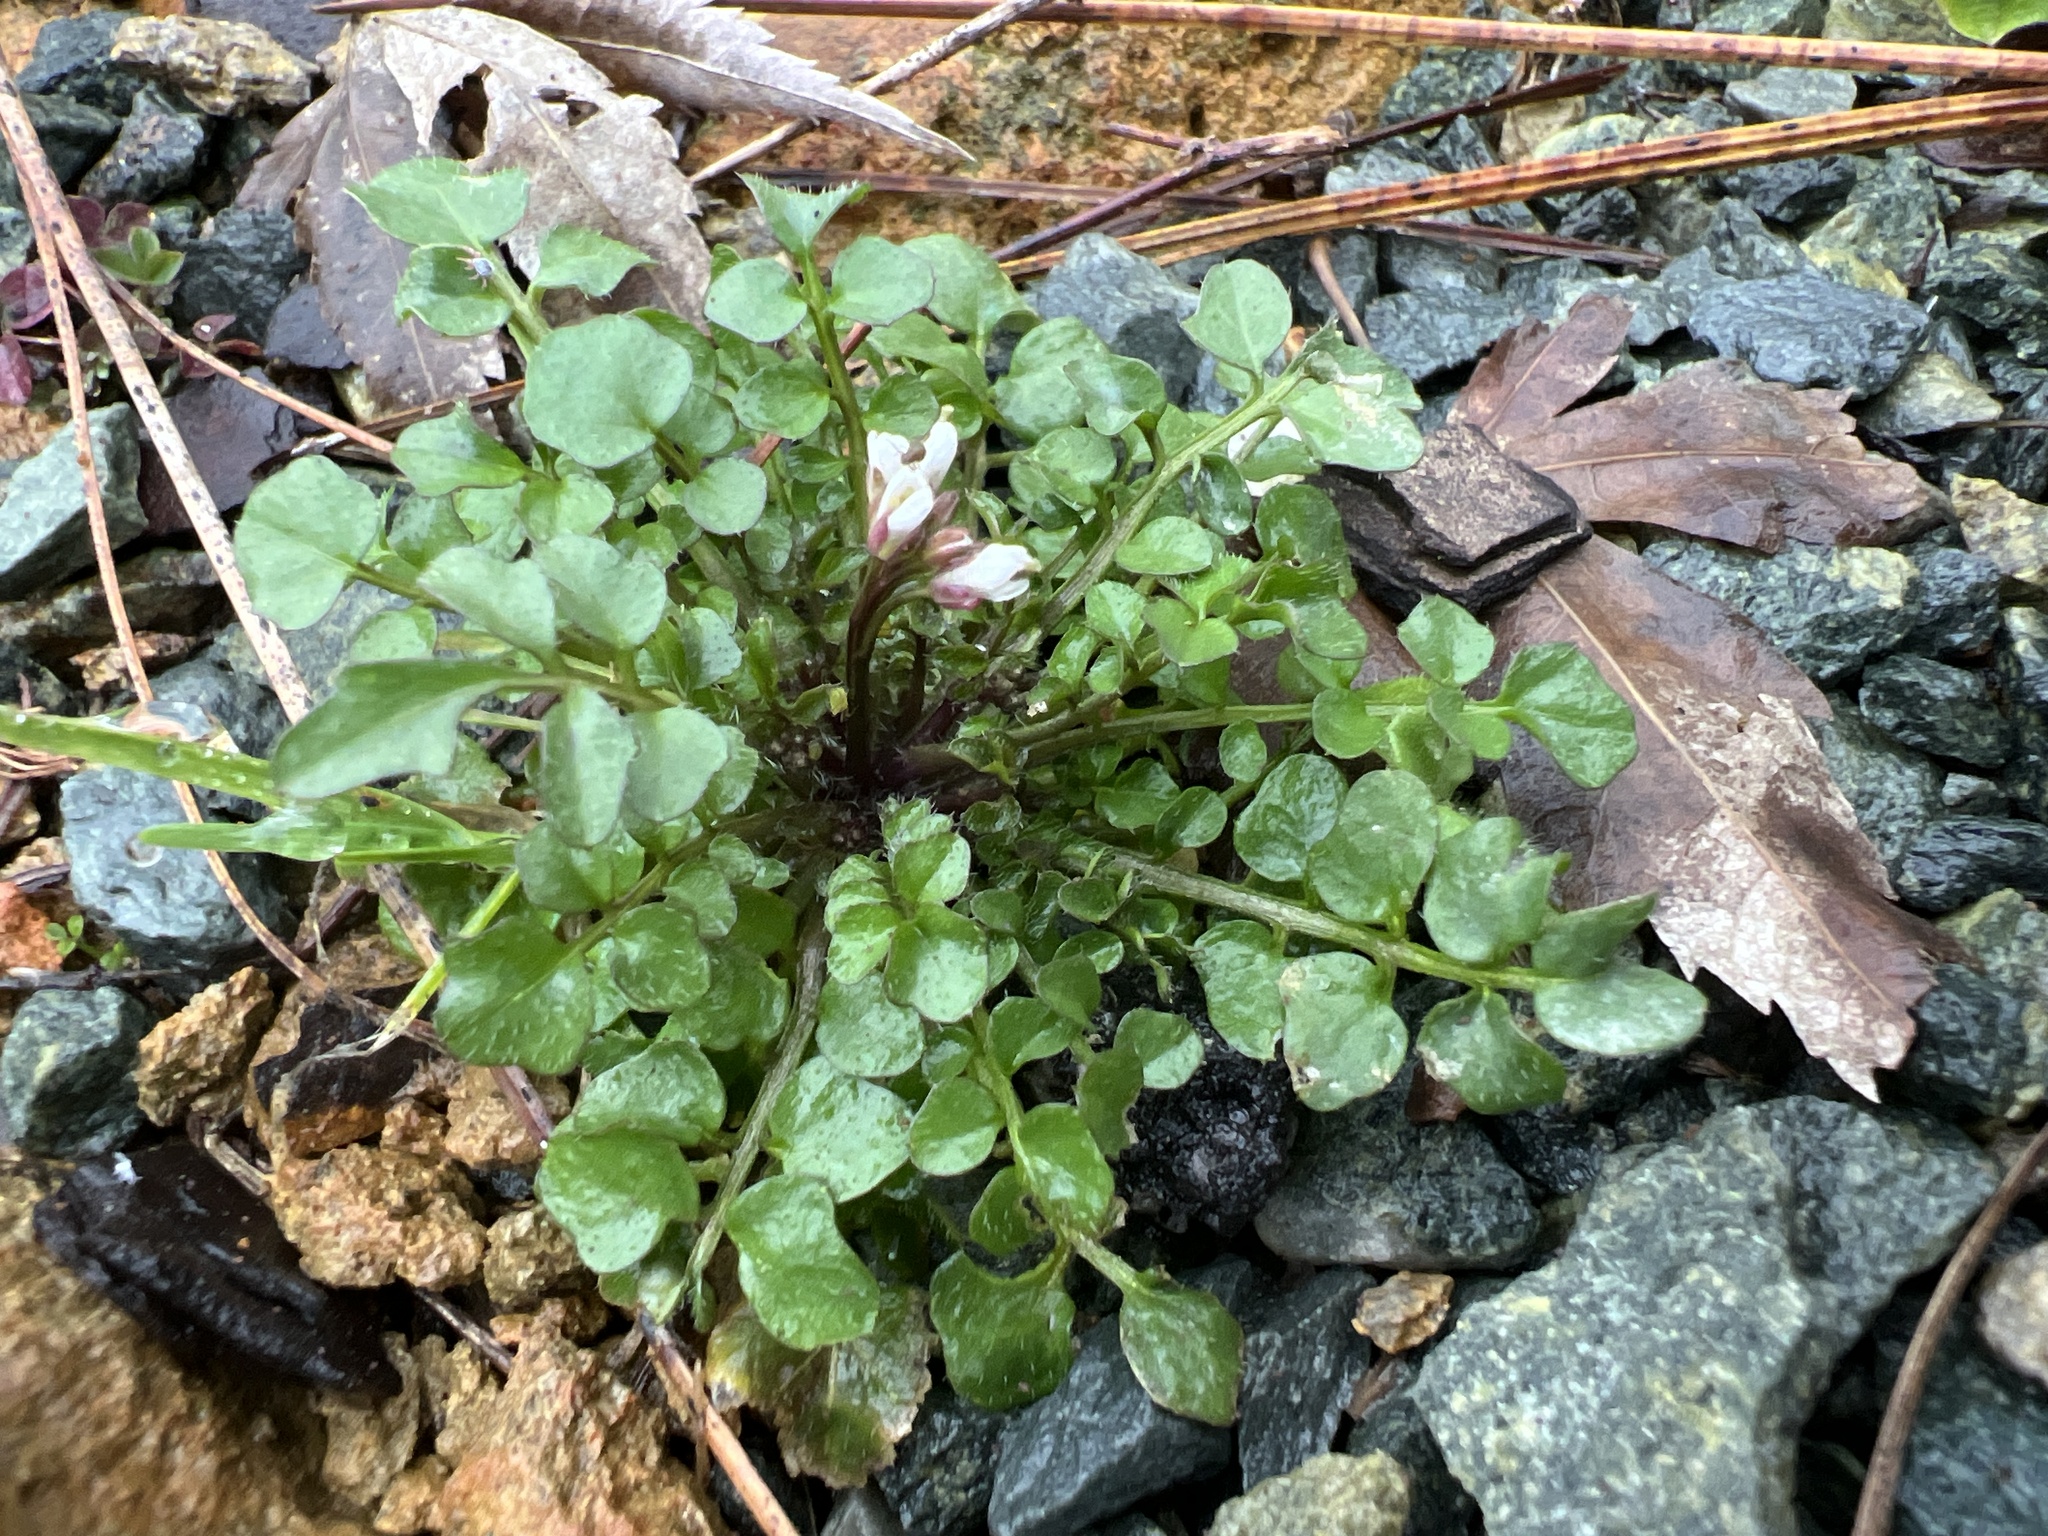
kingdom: Plantae
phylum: Tracheophyta
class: Magnoliopsida
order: Brassicales
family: Brassicaceae
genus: Cardamine
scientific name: Cardamine hirsuta
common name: Hairy bittercress
